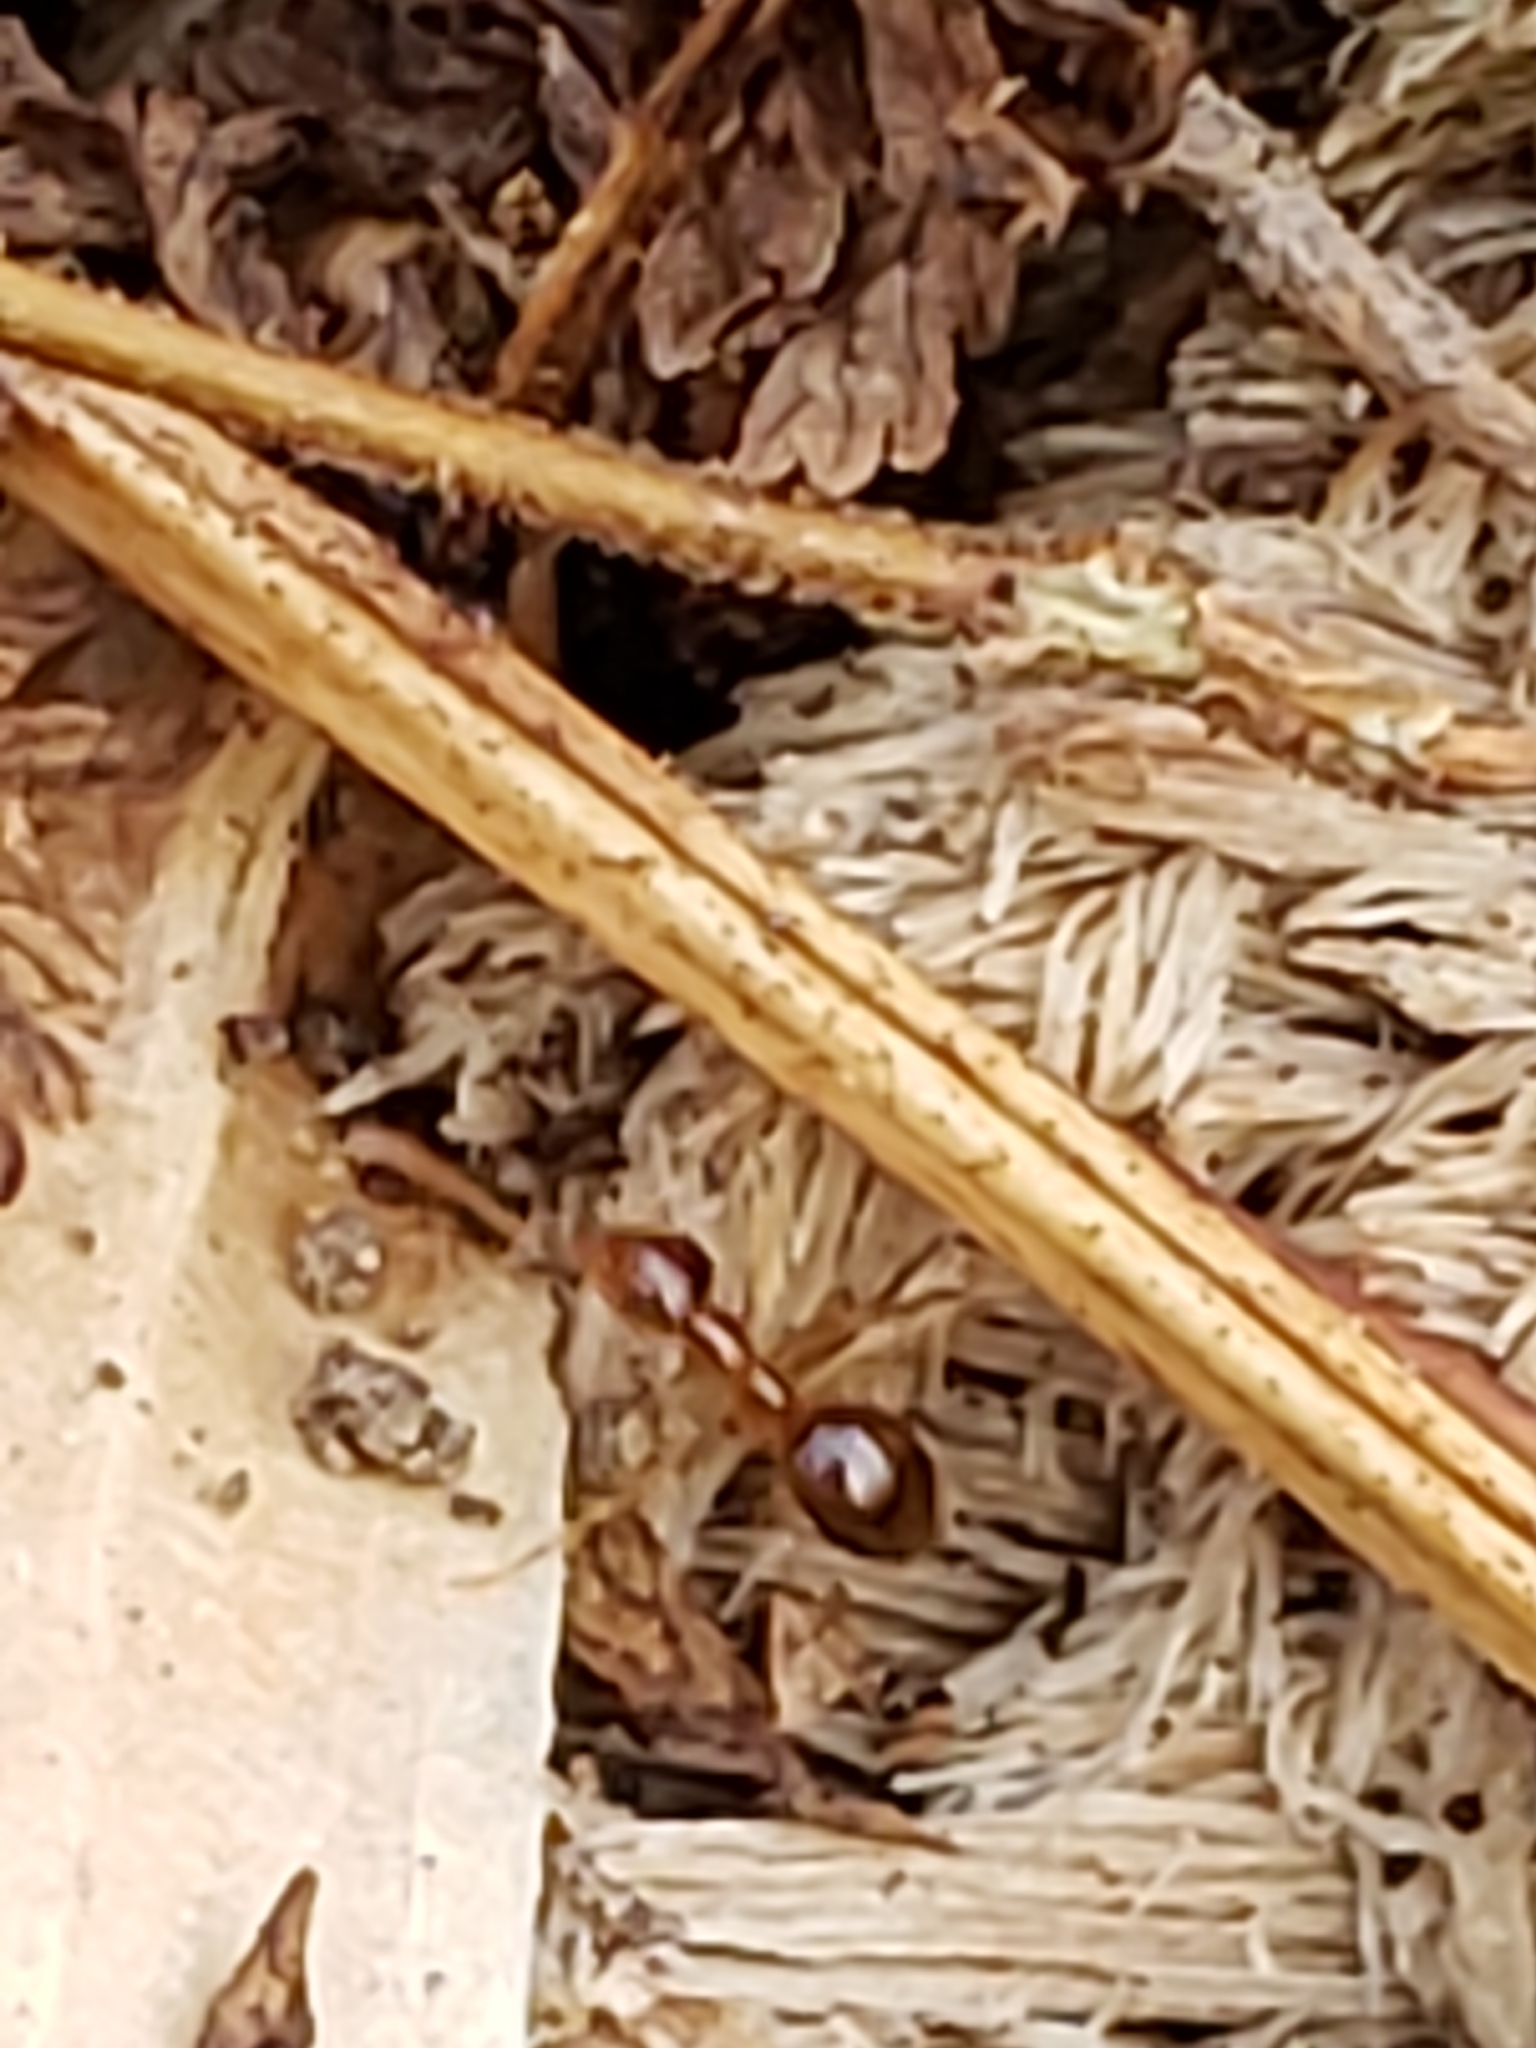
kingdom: Animalia
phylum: Arthropoda
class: Insecta
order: Hymenoptera
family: Formicidae
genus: Prenolepis
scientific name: Prenolepis imparis
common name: Small honey ant
